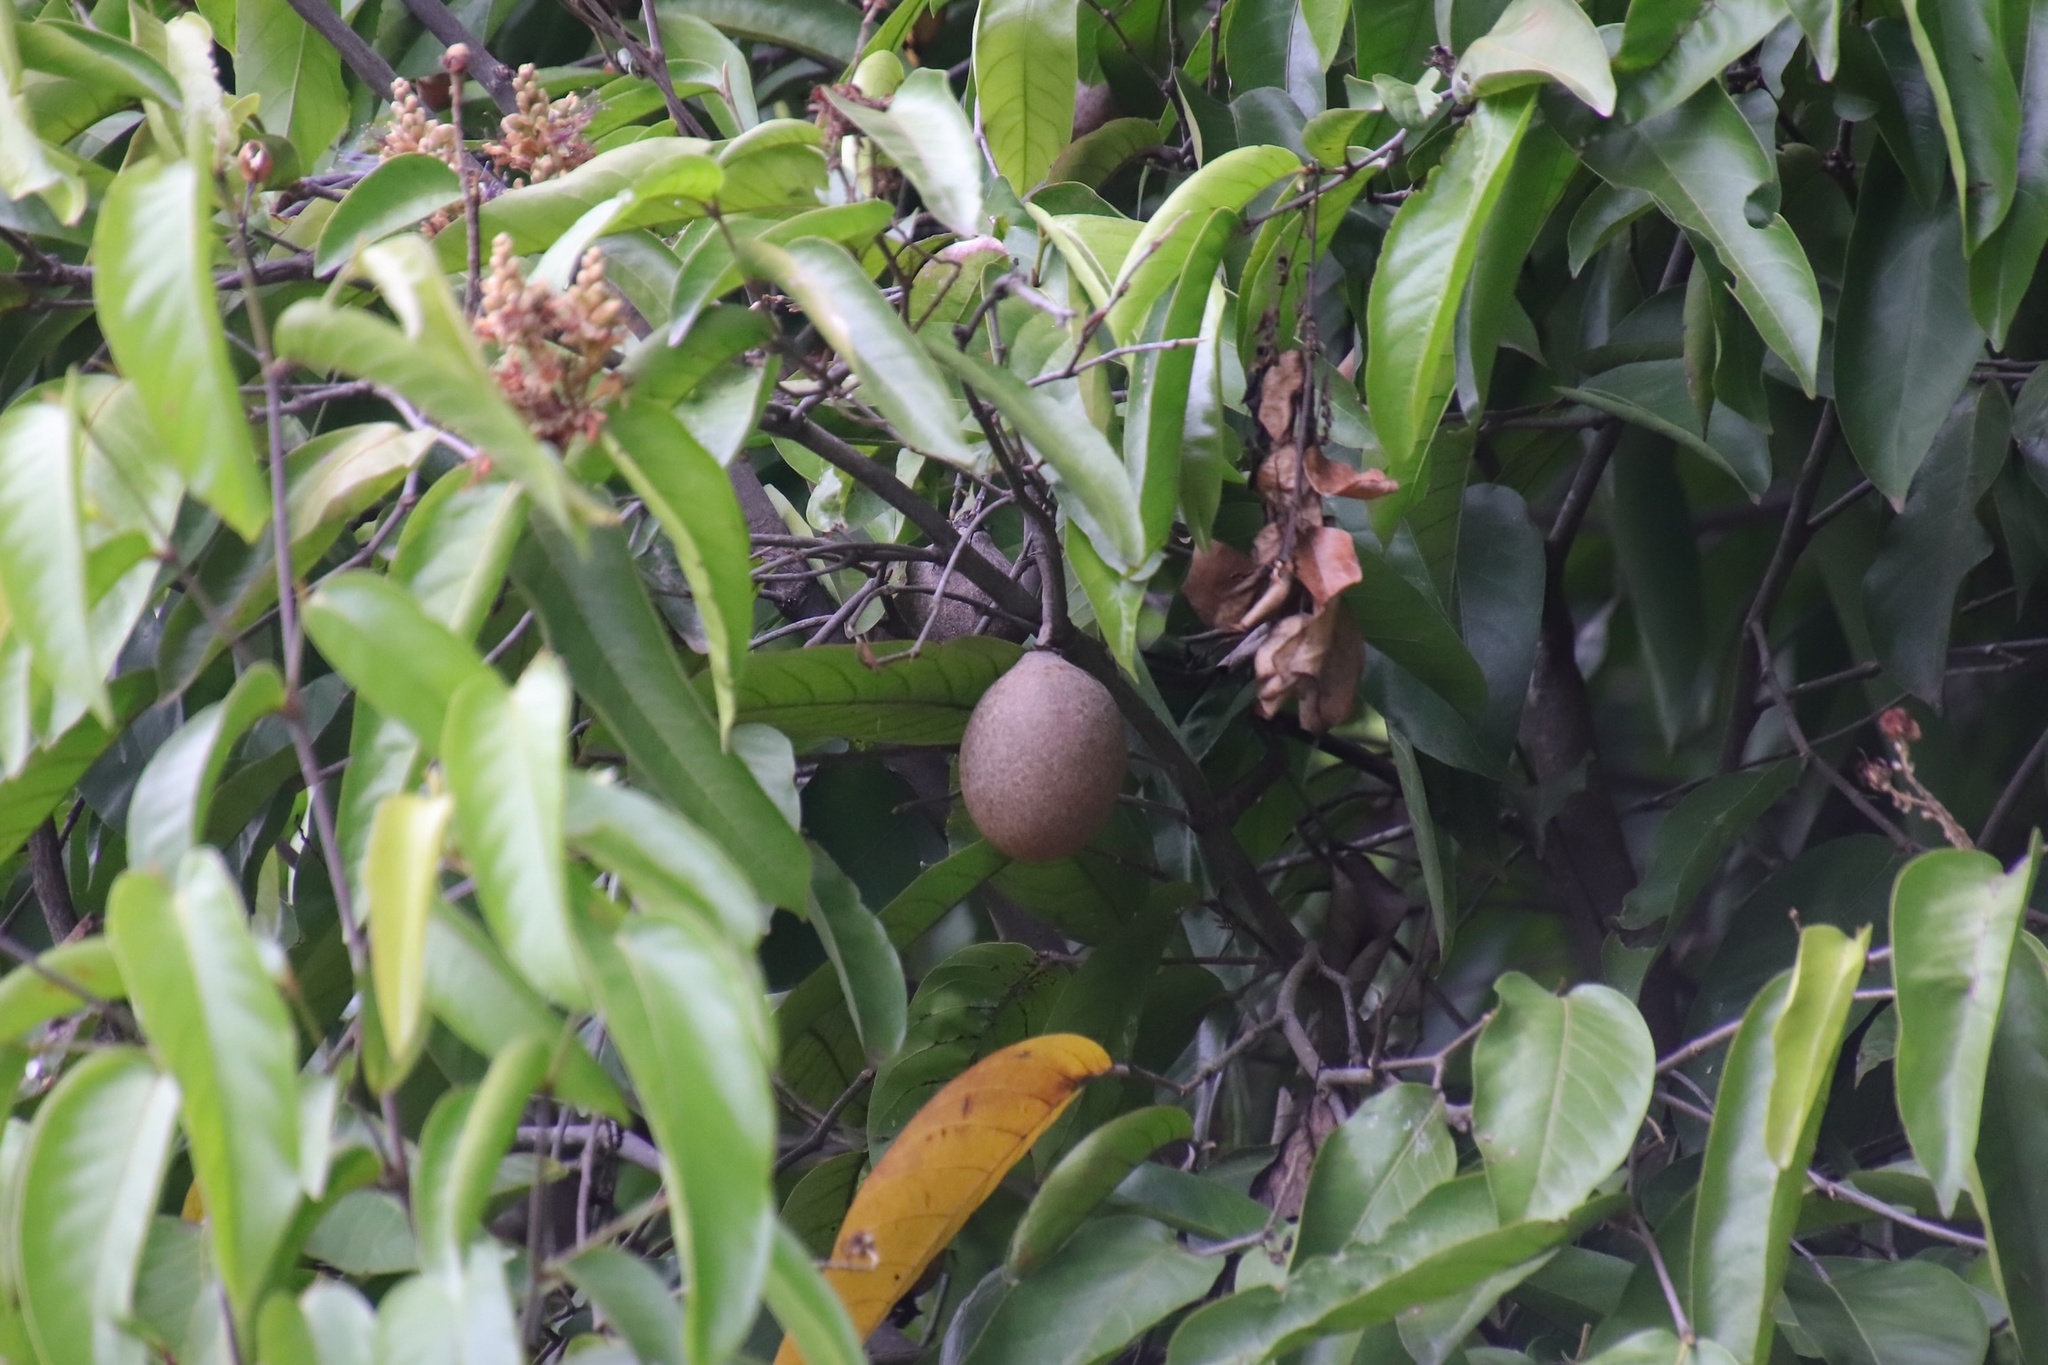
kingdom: Plantae
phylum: Tracheophyta
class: Magnoliopsida
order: Ericales
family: Sapotaceae
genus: Manilkara
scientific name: Manilkara zapota
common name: Sapodilla
